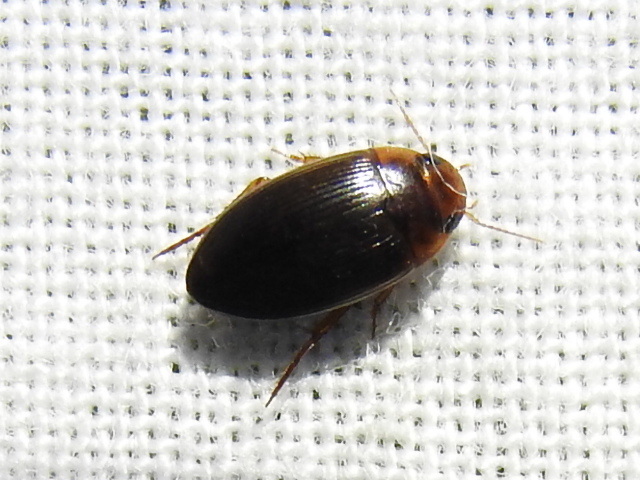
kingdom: Animalia
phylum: Arthropoda
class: Insecta
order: Coleoptera
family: Dytiscidae
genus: Copelatus
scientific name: Copelatus glyphicus
